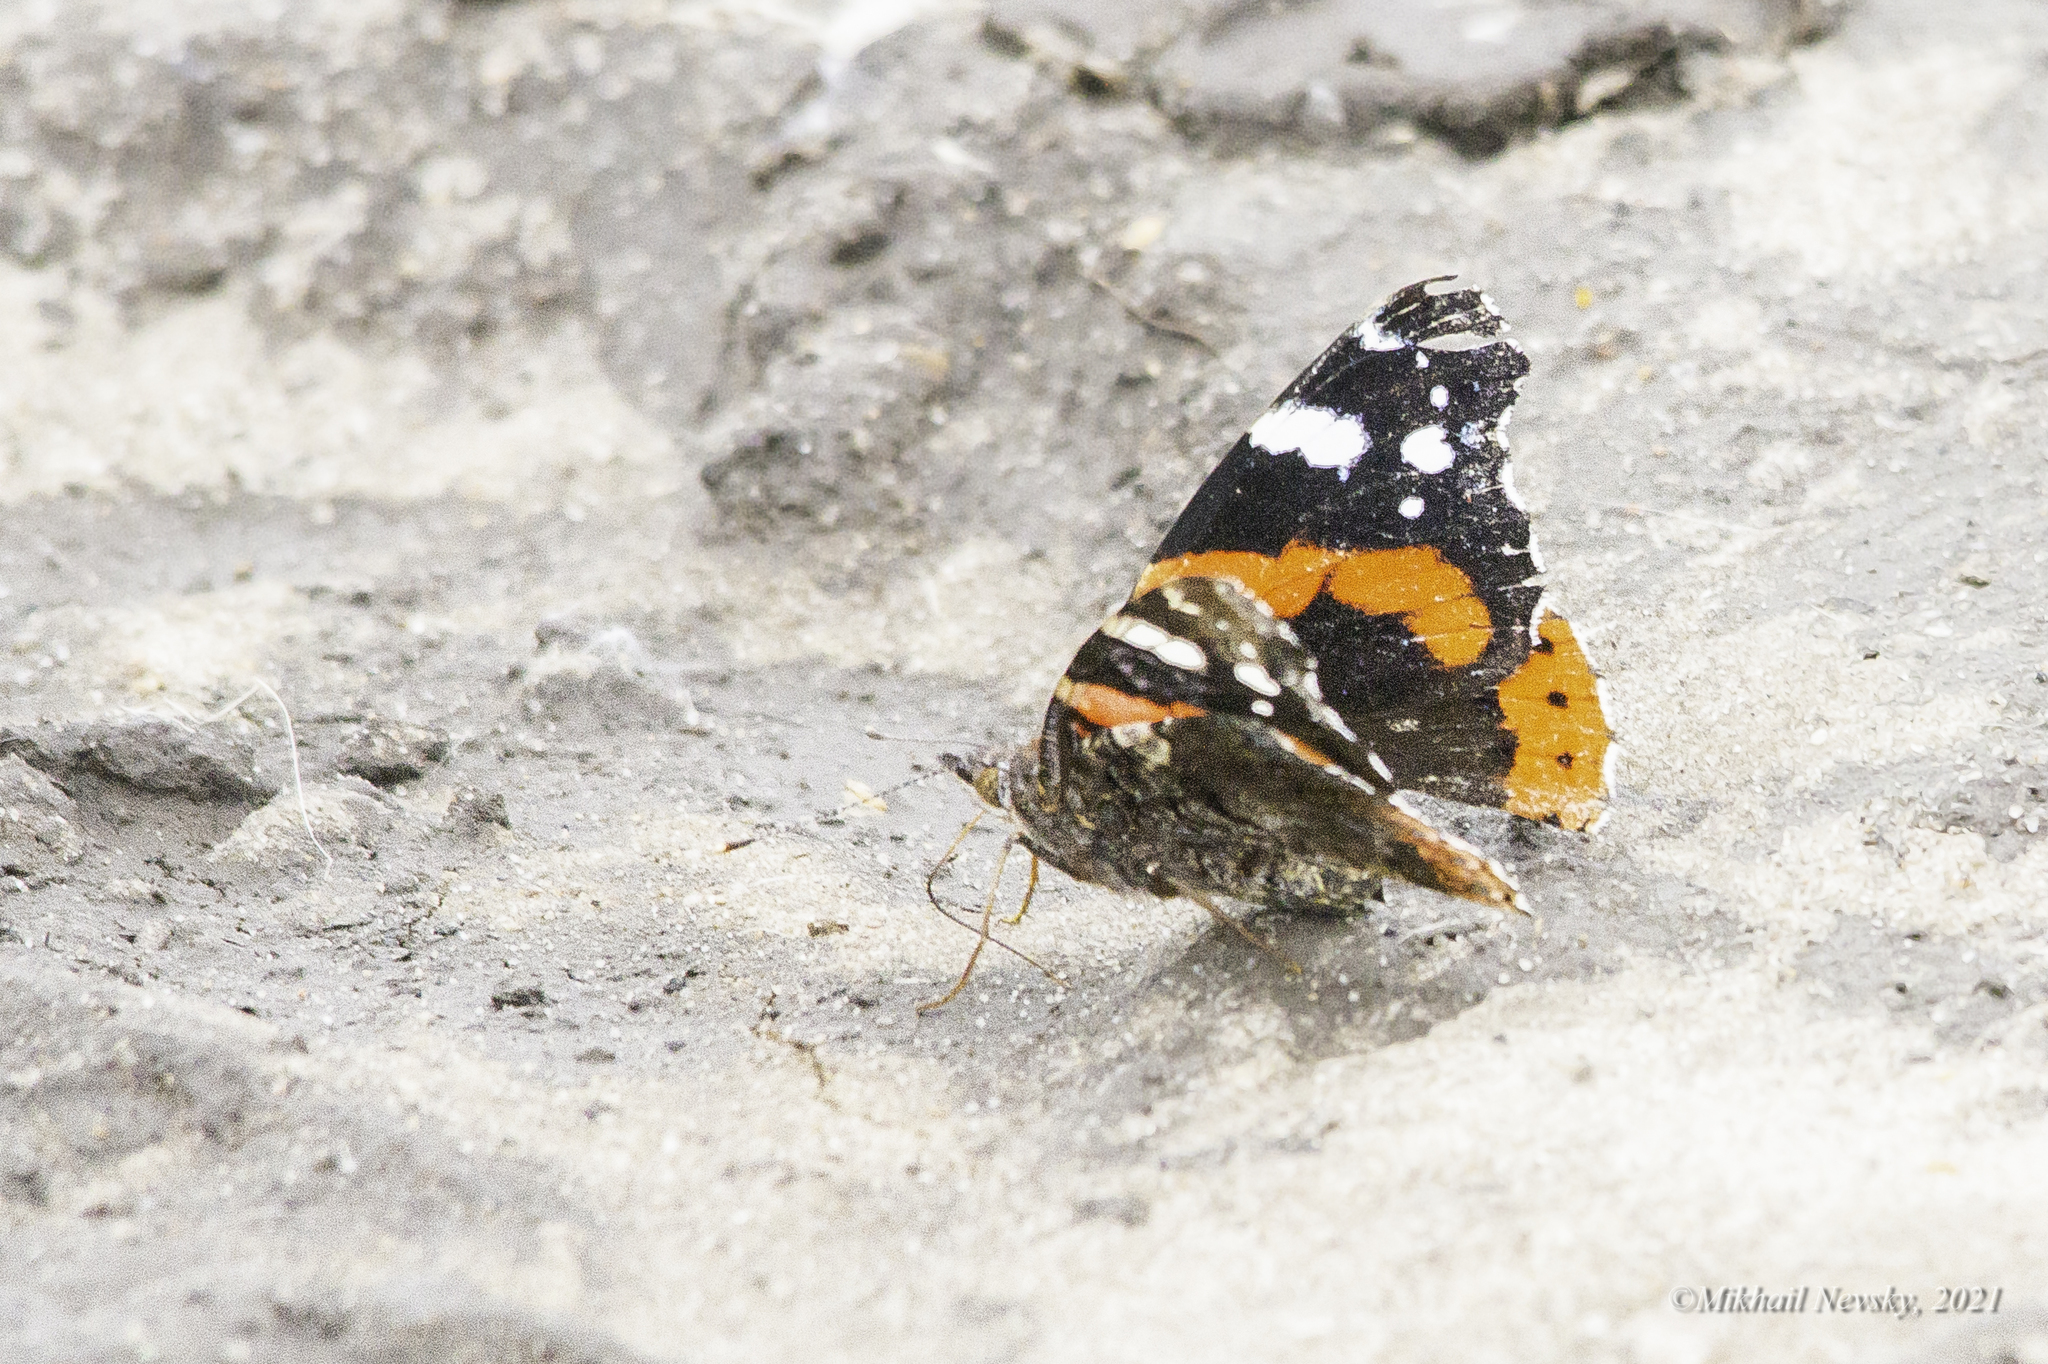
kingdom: Animalia
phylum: Arthropoda
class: Insecta
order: Lepidoptera
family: Nymphalidae
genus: Vanessa
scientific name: Vanessa atalanta
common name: Red admiral
